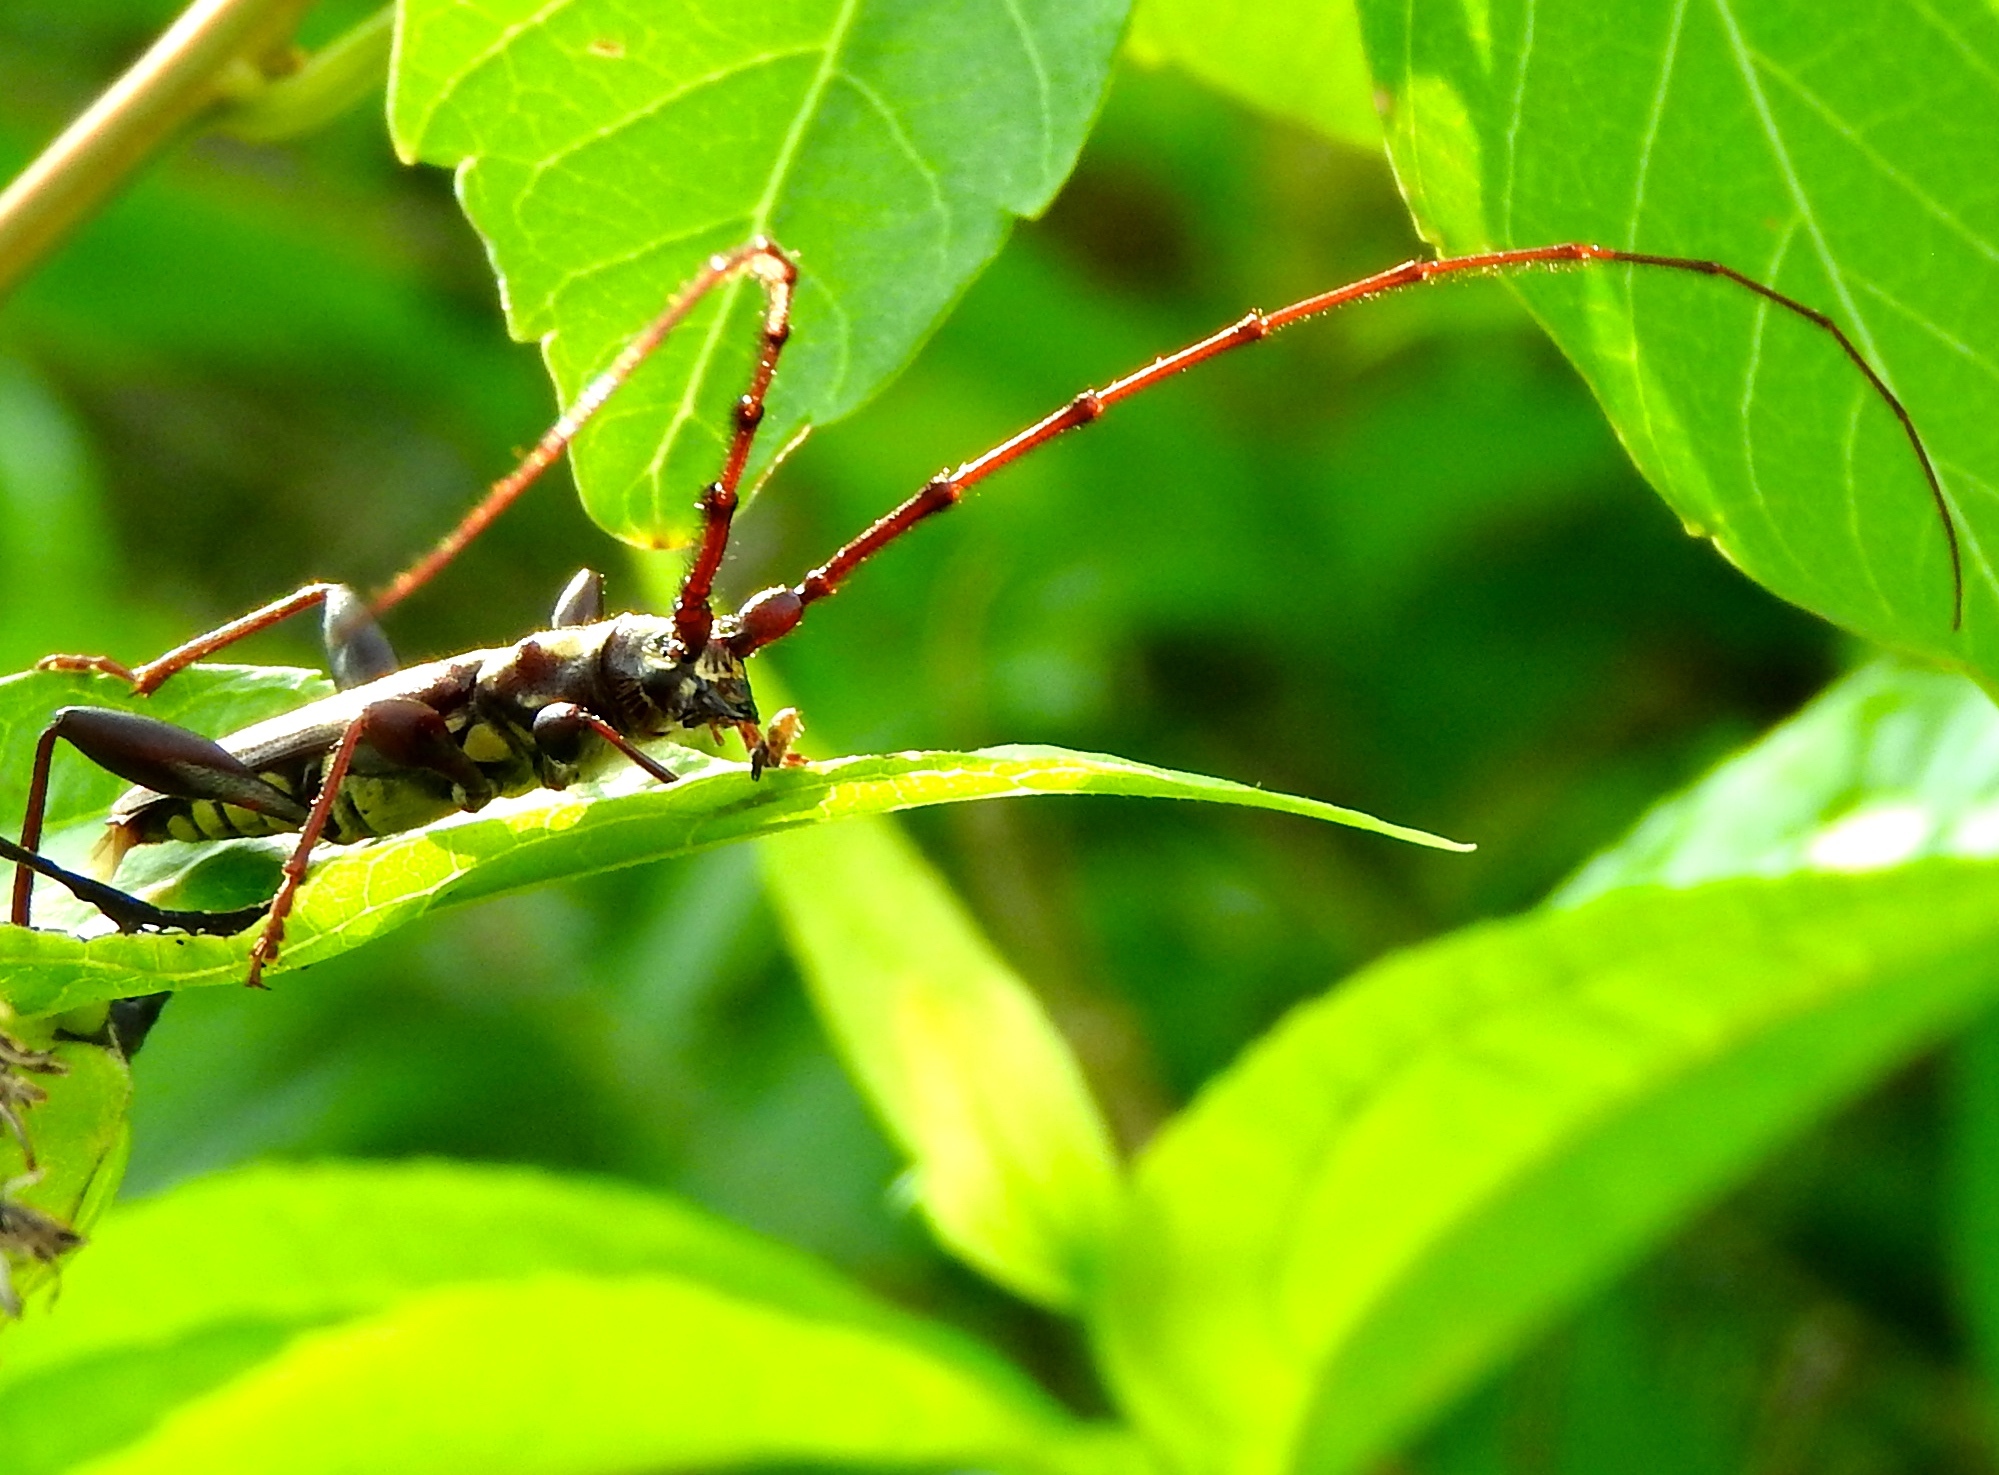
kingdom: Animalia
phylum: Arthropoda
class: Insecta
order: Coleoptera
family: Cerambycidae
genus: Ornithia
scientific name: Ornithia zapotensis
